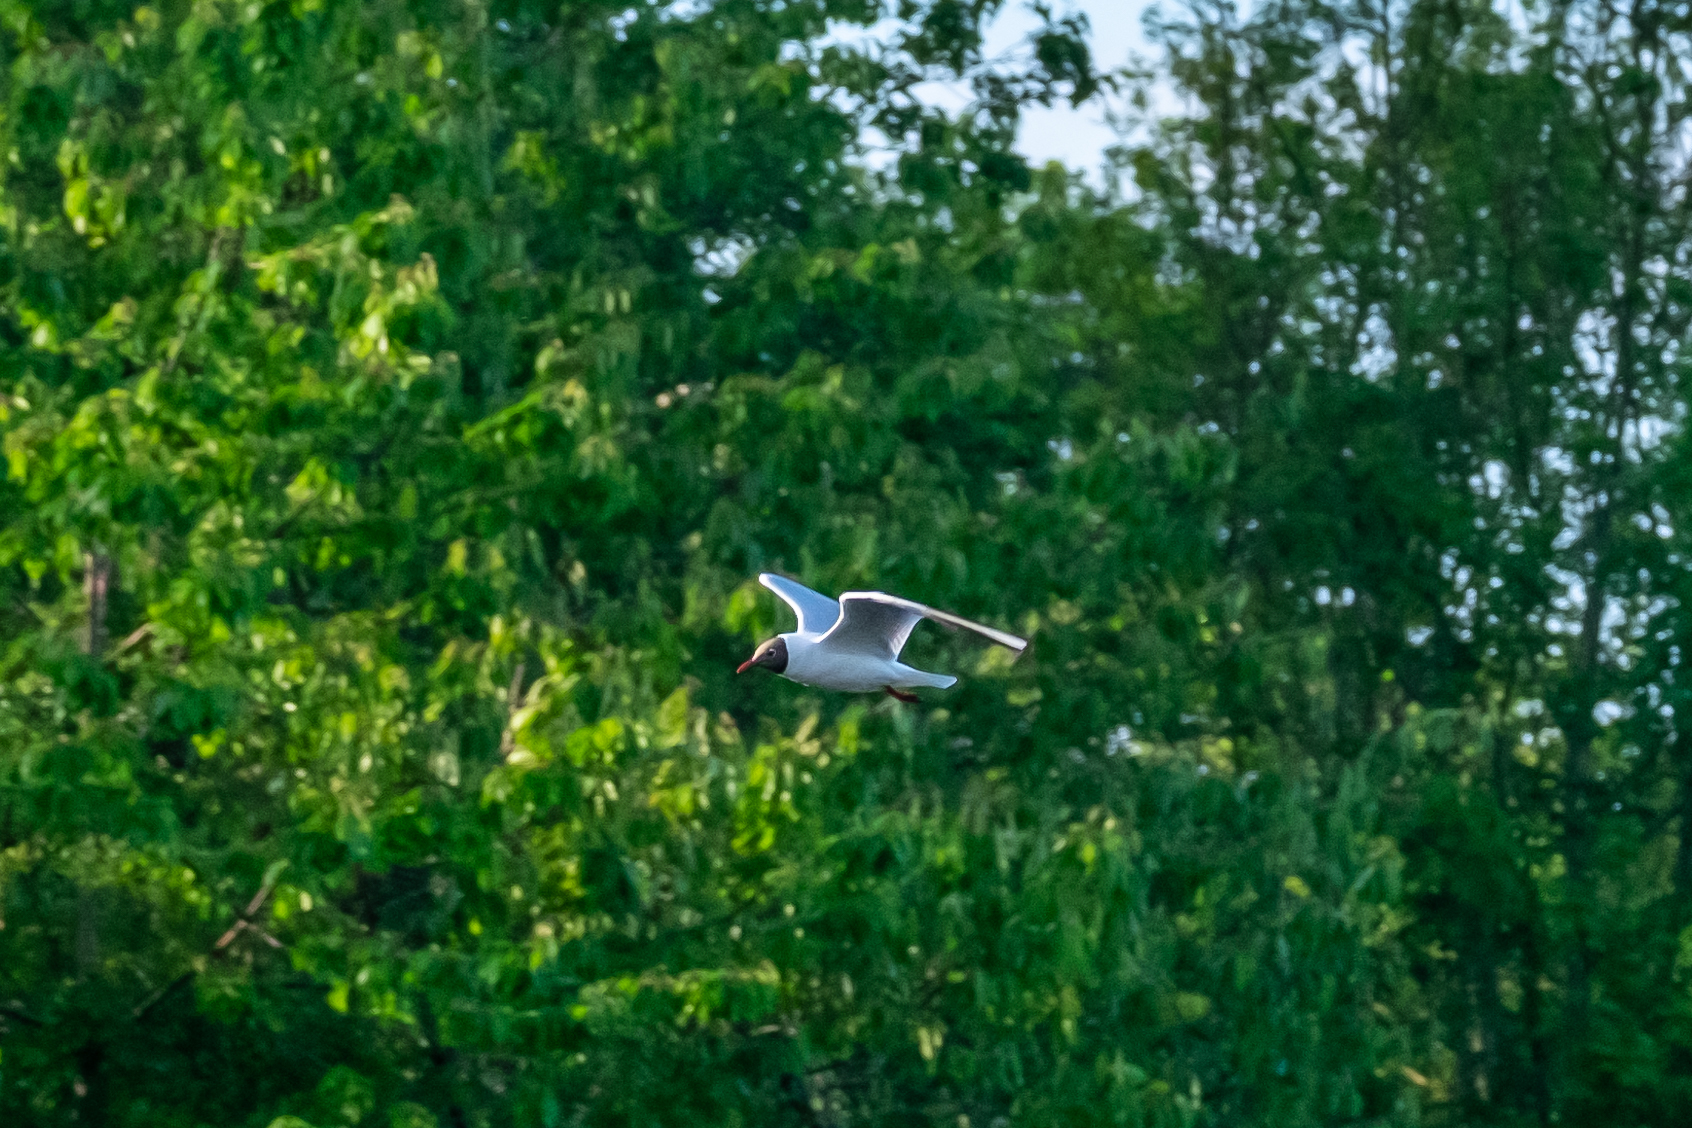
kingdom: Animalia
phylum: Chordata
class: Aves
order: Charadriiformes
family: Laridae
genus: Chroicocephalus
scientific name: Chroicocephalus ridibundus
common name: Black-headed gull
